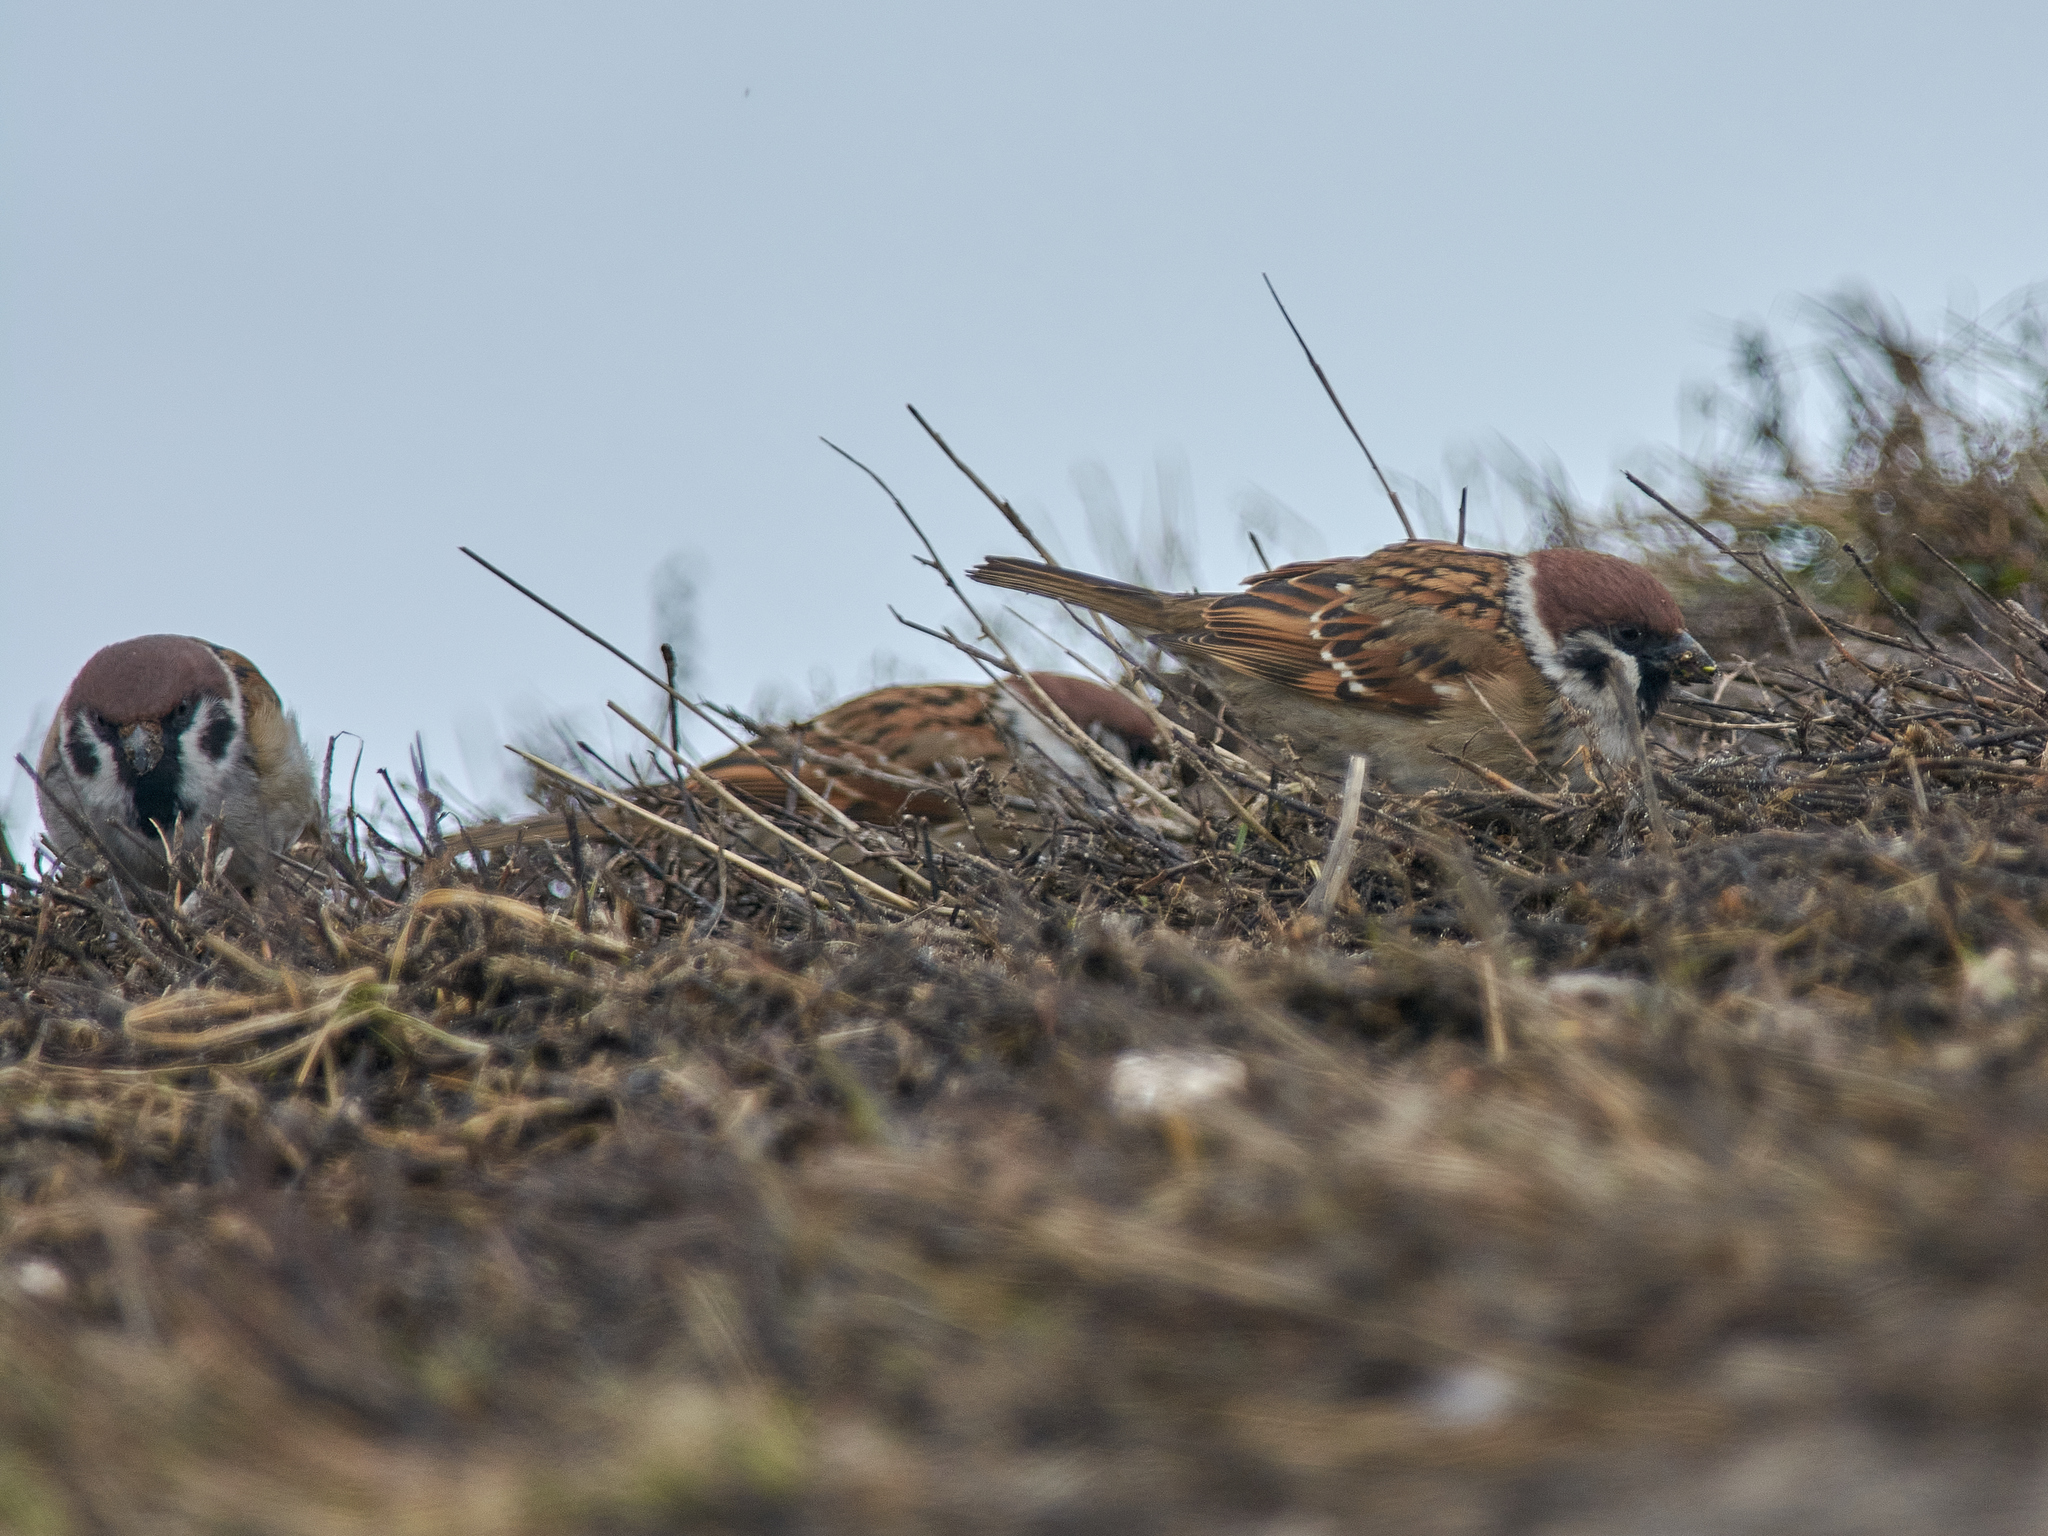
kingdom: Animalia
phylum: Chordata
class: Aves
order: Passeriformes
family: Passeridae
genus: Passer
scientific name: Passer montanus
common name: Eurasian tree sparrow
